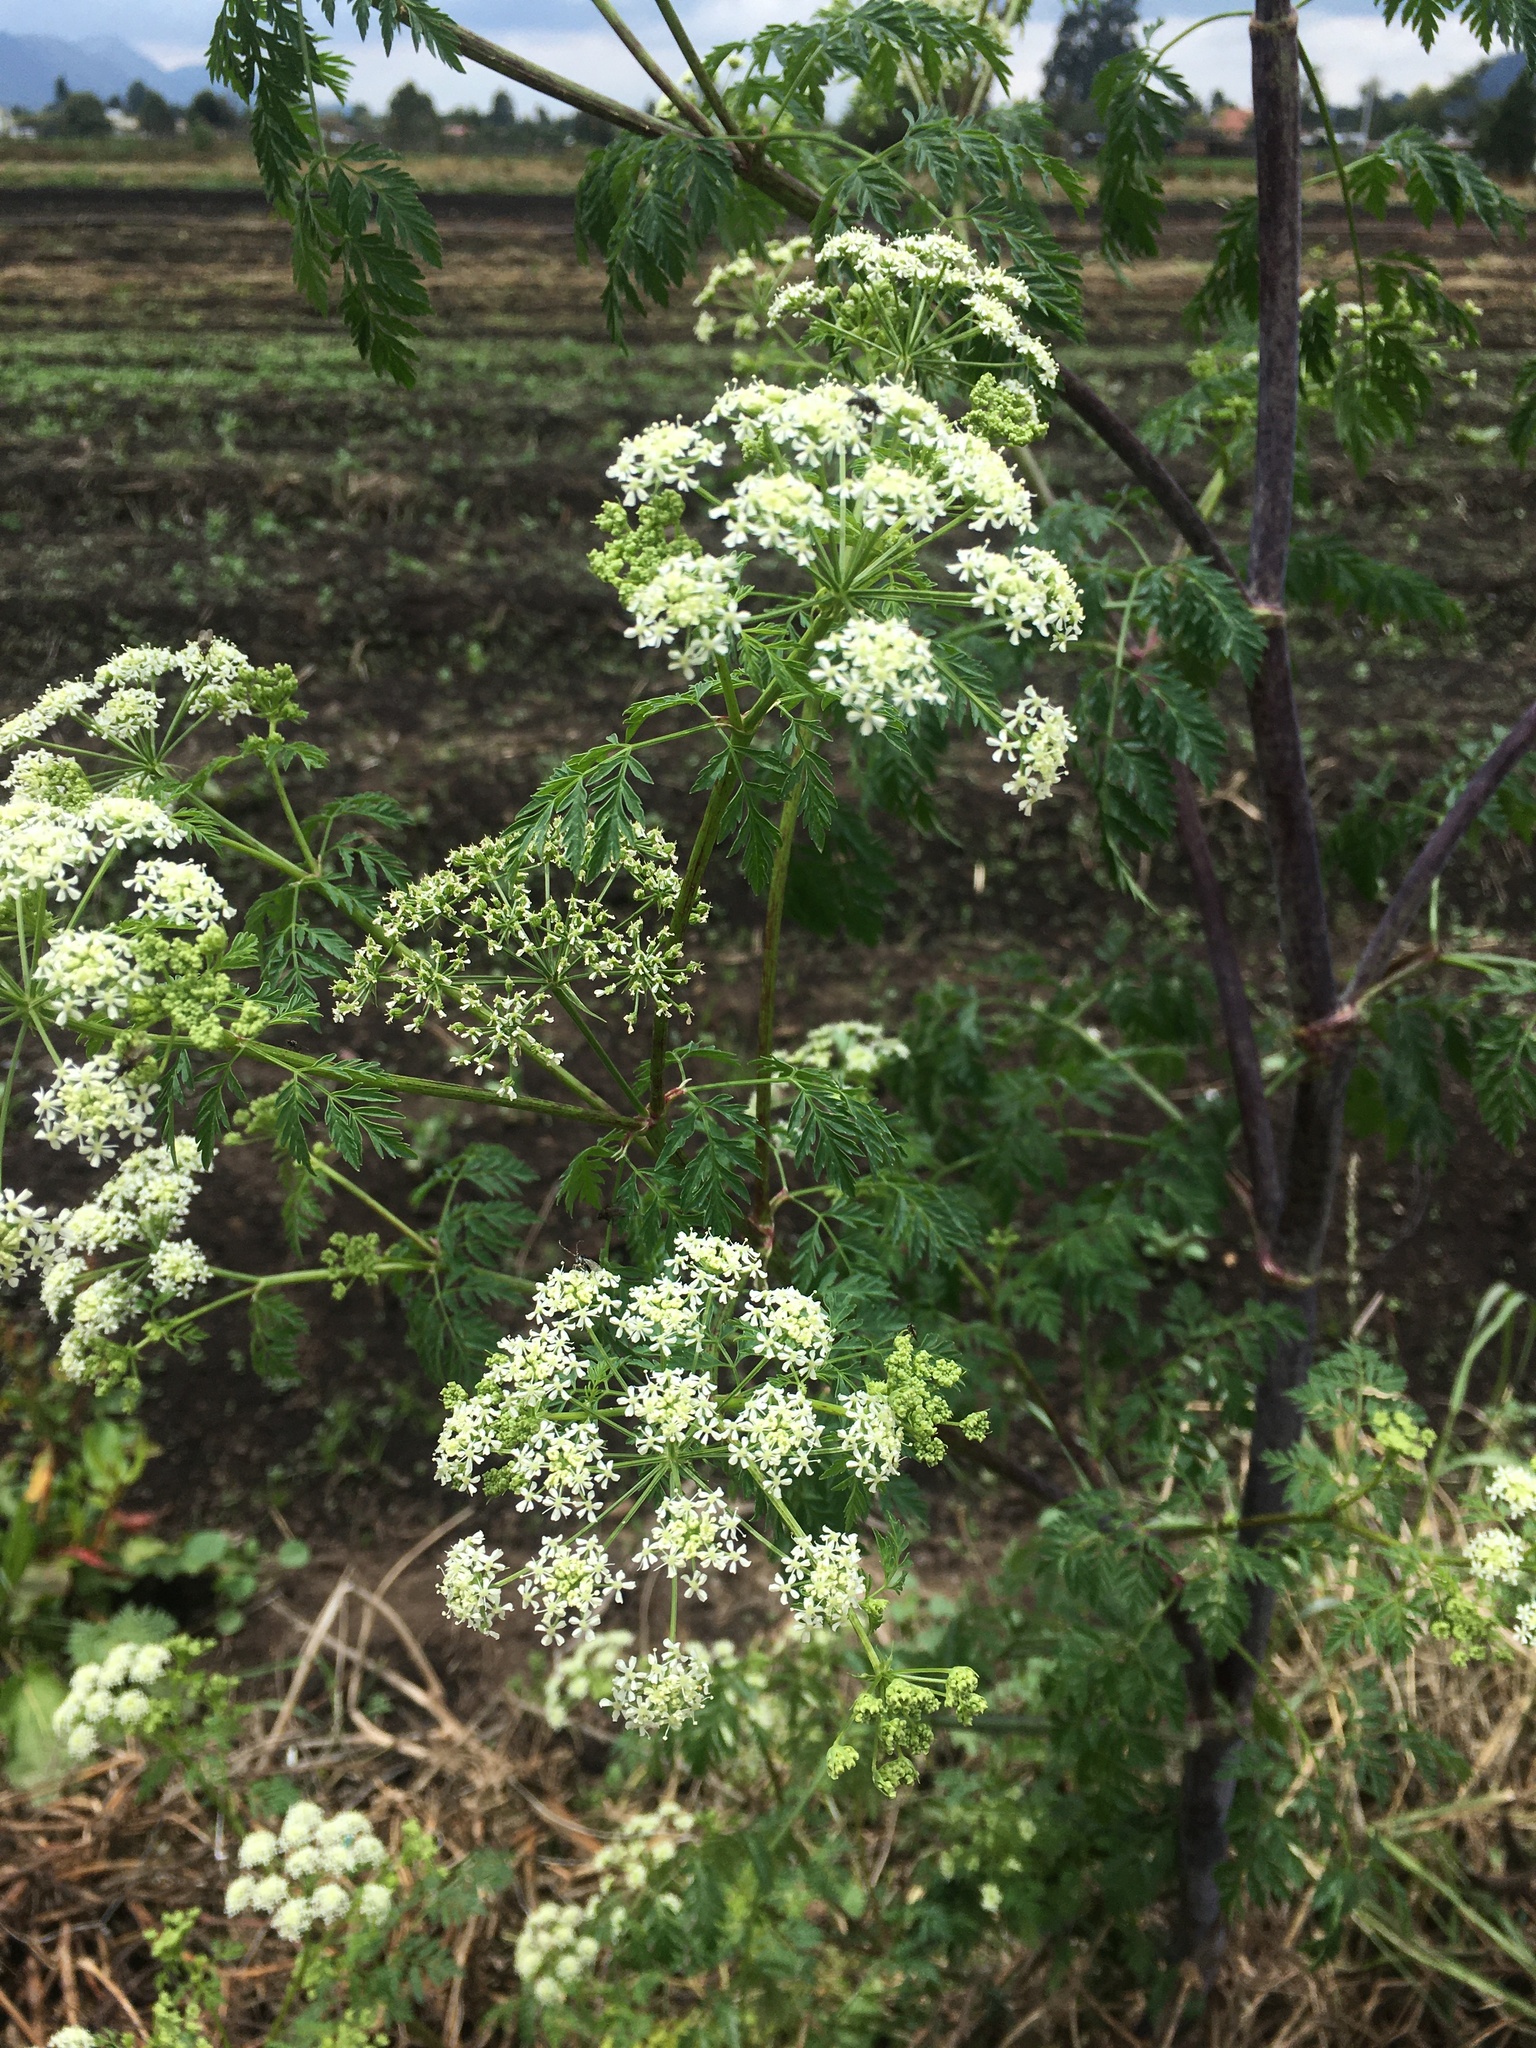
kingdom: Plantae
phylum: Tracheophyta
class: Magnoliopsida
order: Apiales
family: Apiaceae
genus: Conium
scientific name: Conium maculatum
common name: Hemlock
